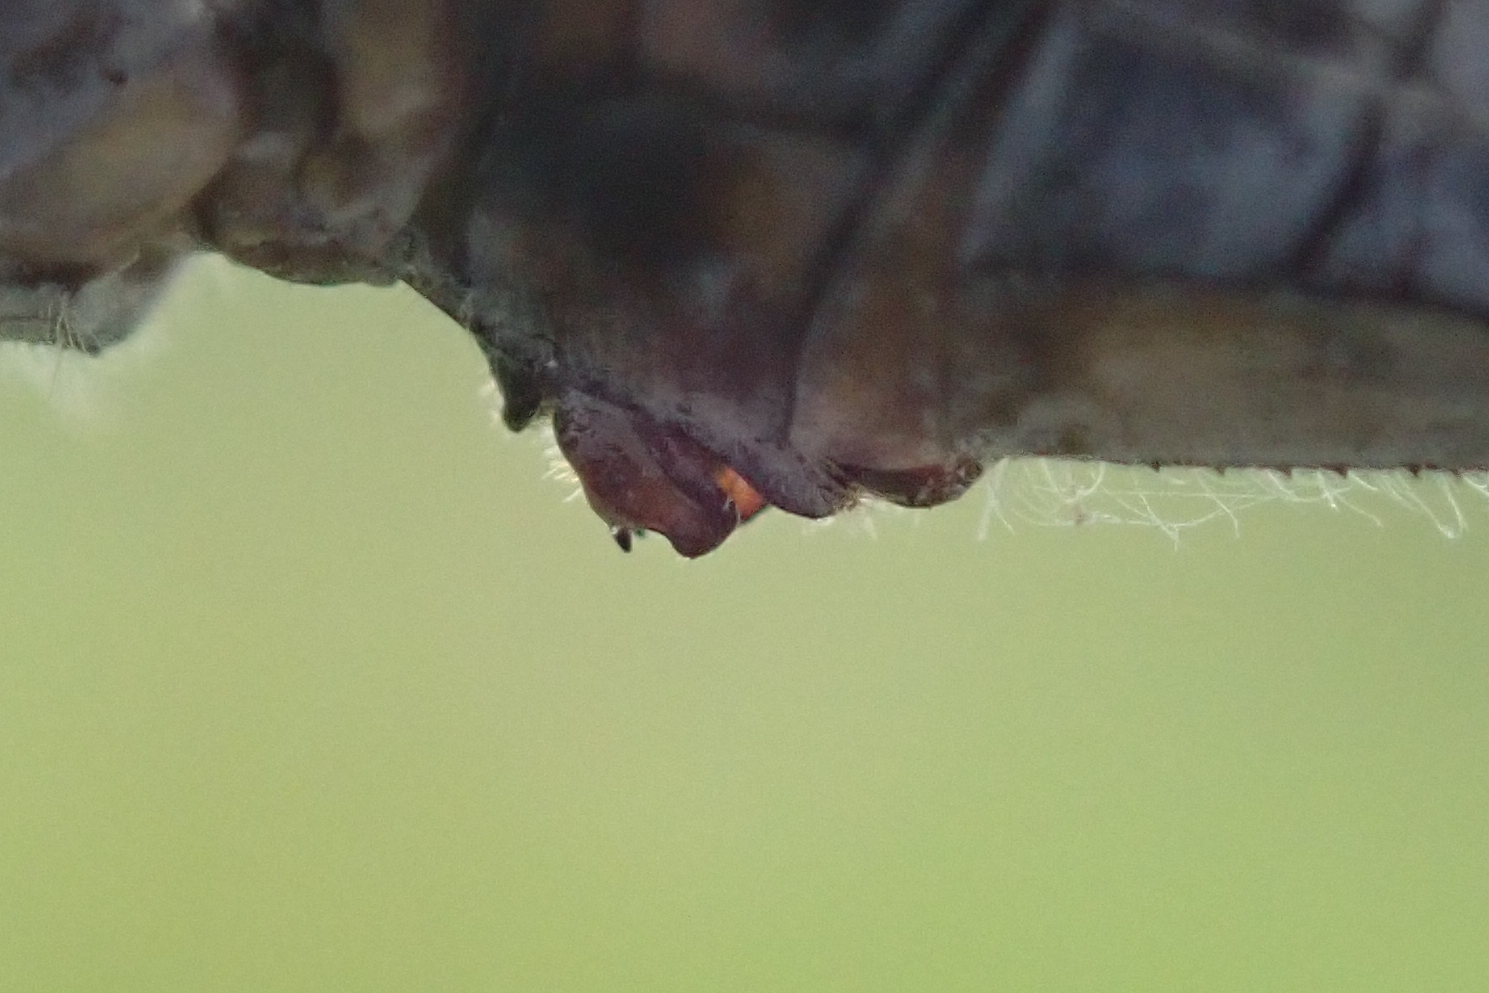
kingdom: Animalia
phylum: Arthropoda
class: Insecta
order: Odonata
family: Libellulidae
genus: Nesciothemis
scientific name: Nesciothemis farinosa
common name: Eastern blacktail
